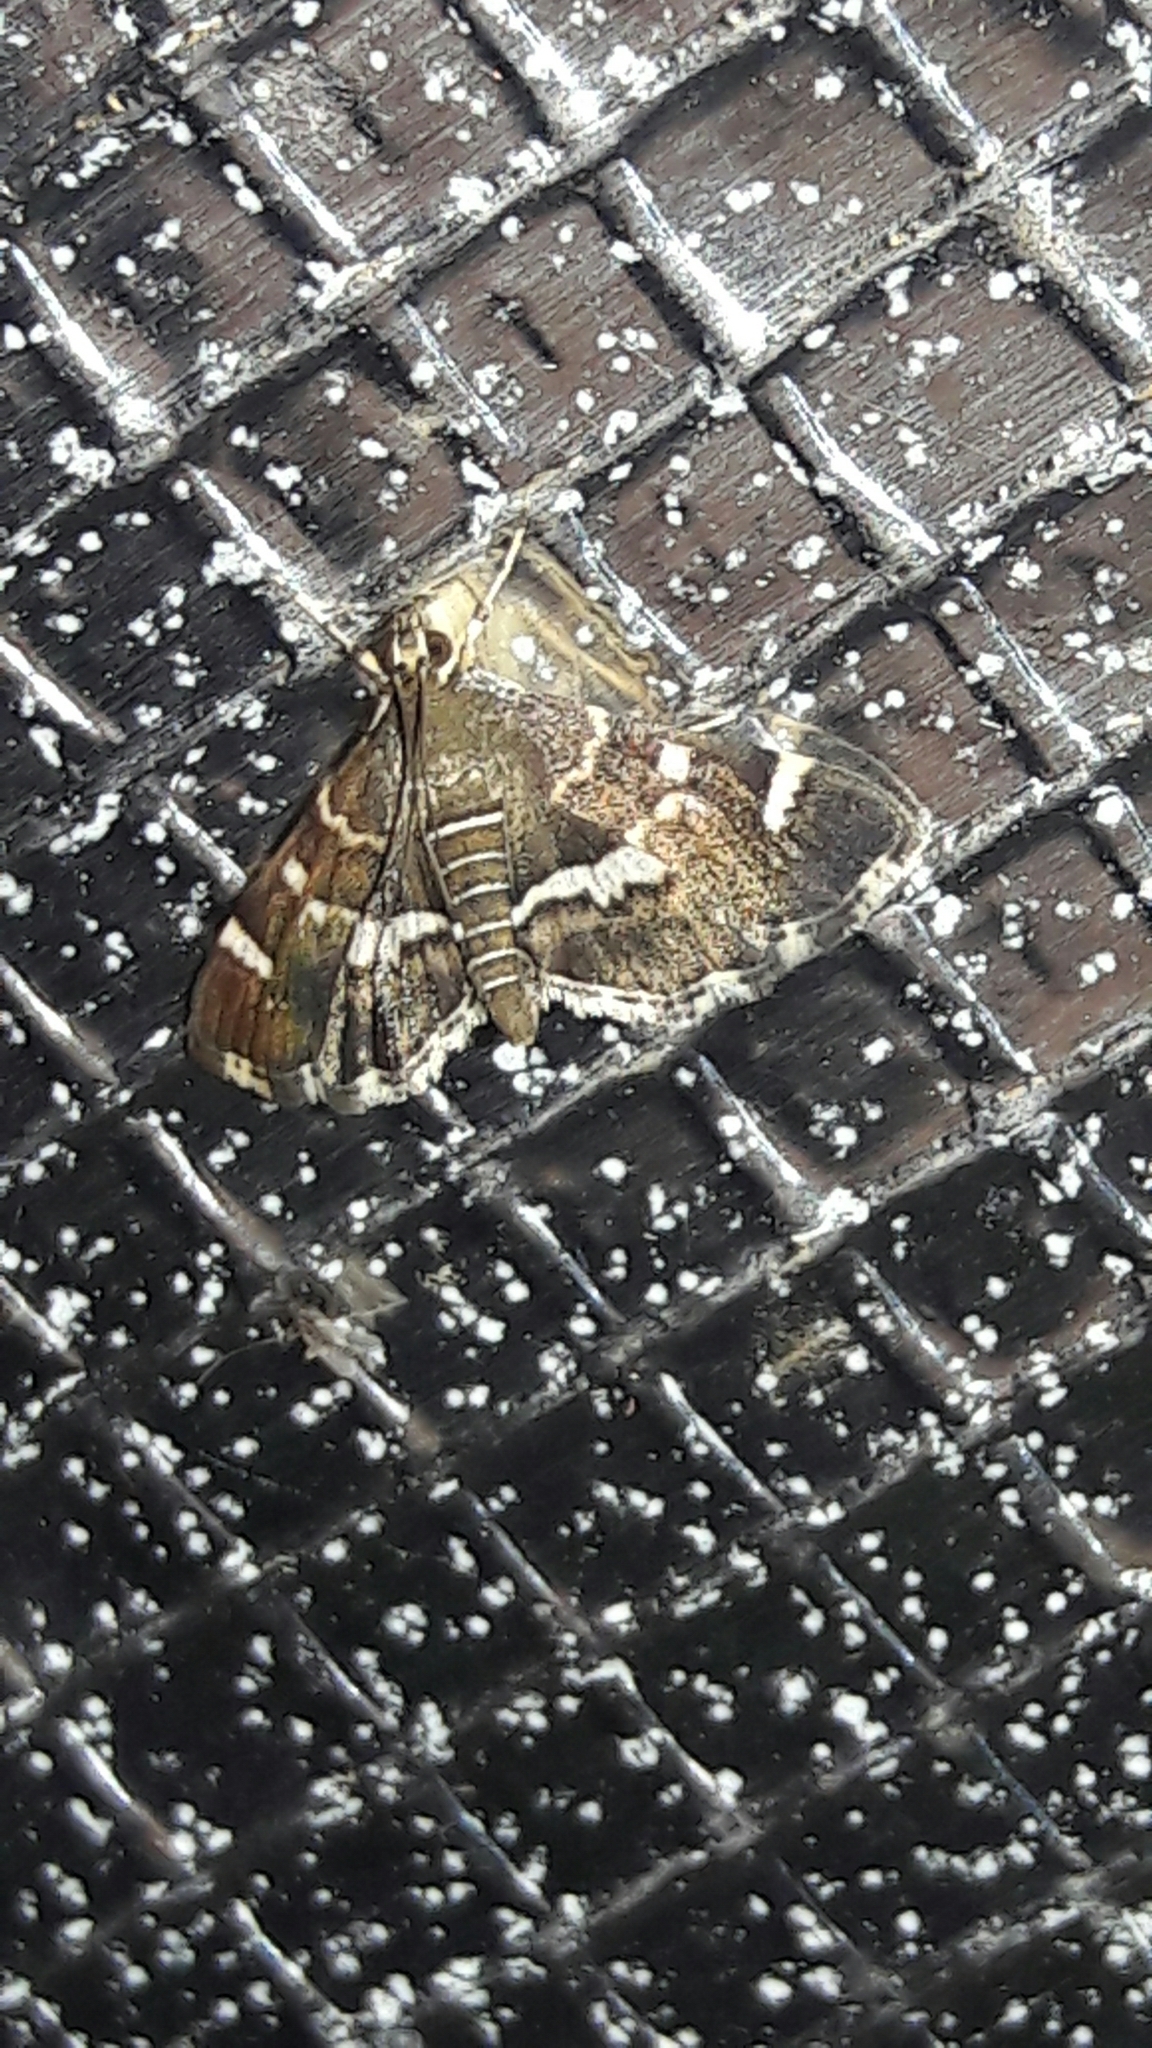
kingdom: Animalia
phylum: Arthropoda
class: Insecta
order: Lepidoptera
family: Crambidae
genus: Hymenia
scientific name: Hymenia perspectalis
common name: Spotted beet webworm
